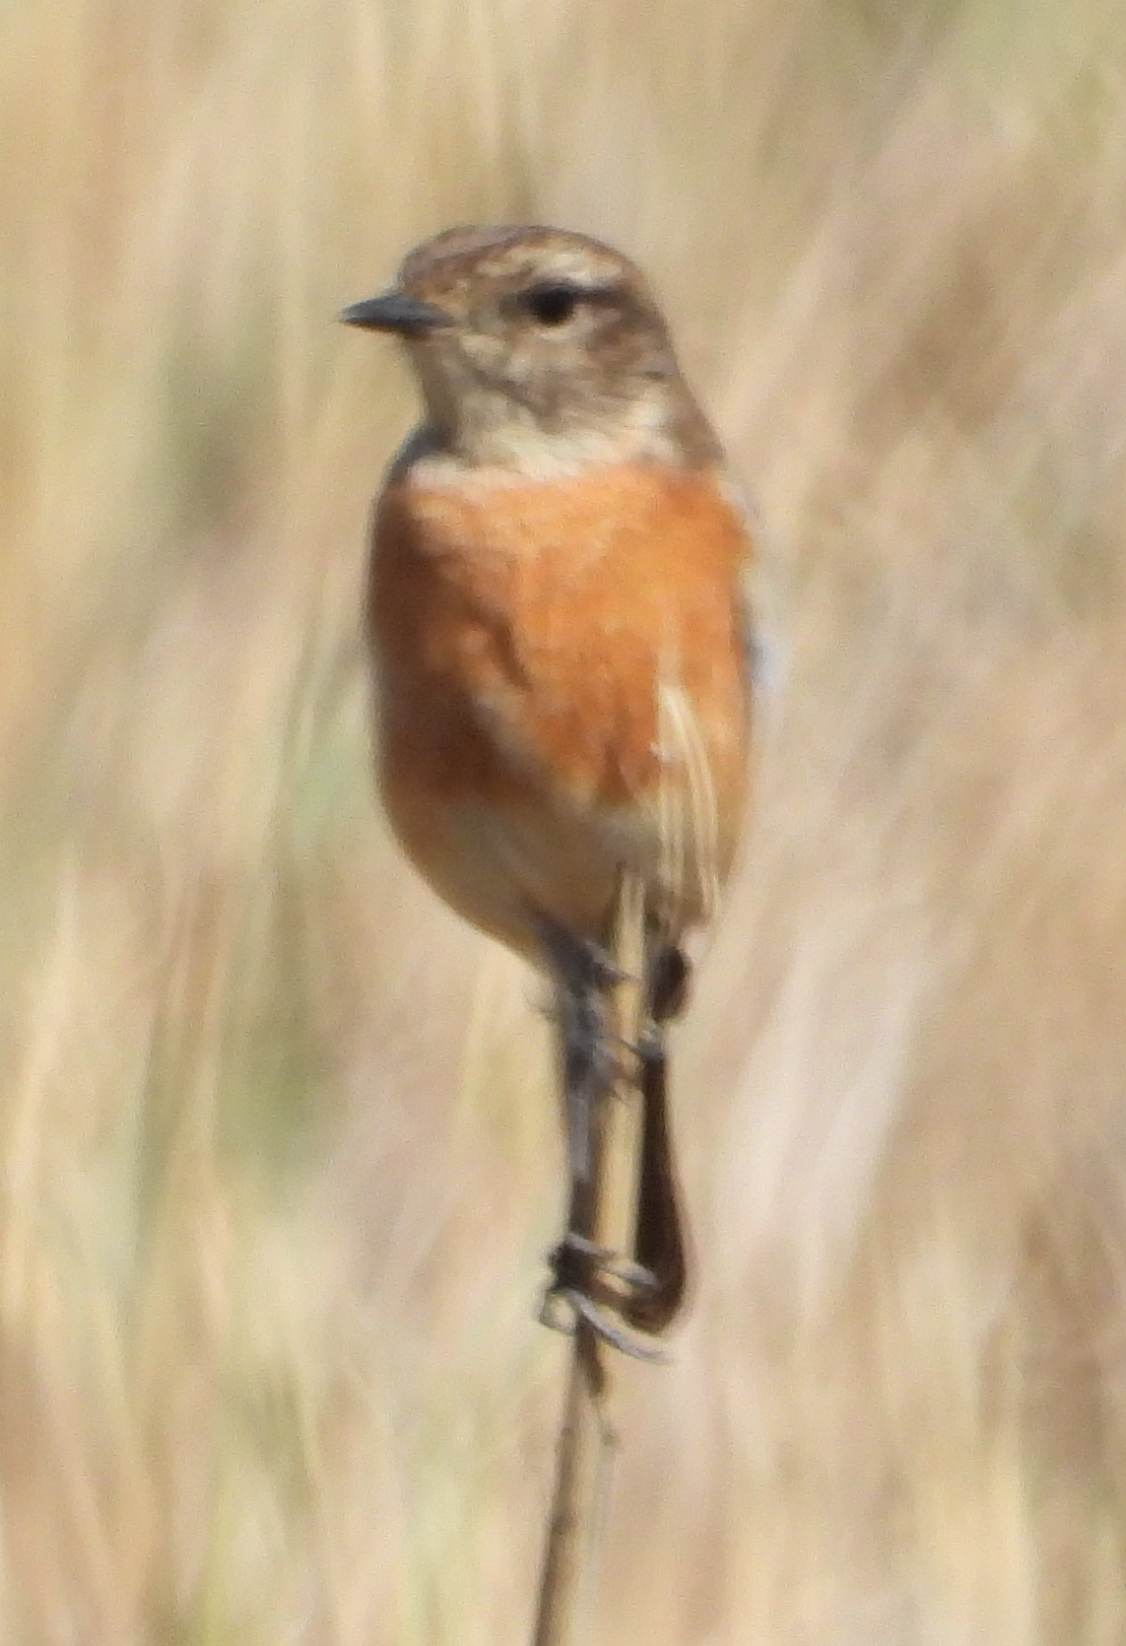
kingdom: Animalia
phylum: Chordata
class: Aves
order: Passeriformes
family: Muscicapidae
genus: Saxicola
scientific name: Saxicola torquatus
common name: African stonechat
